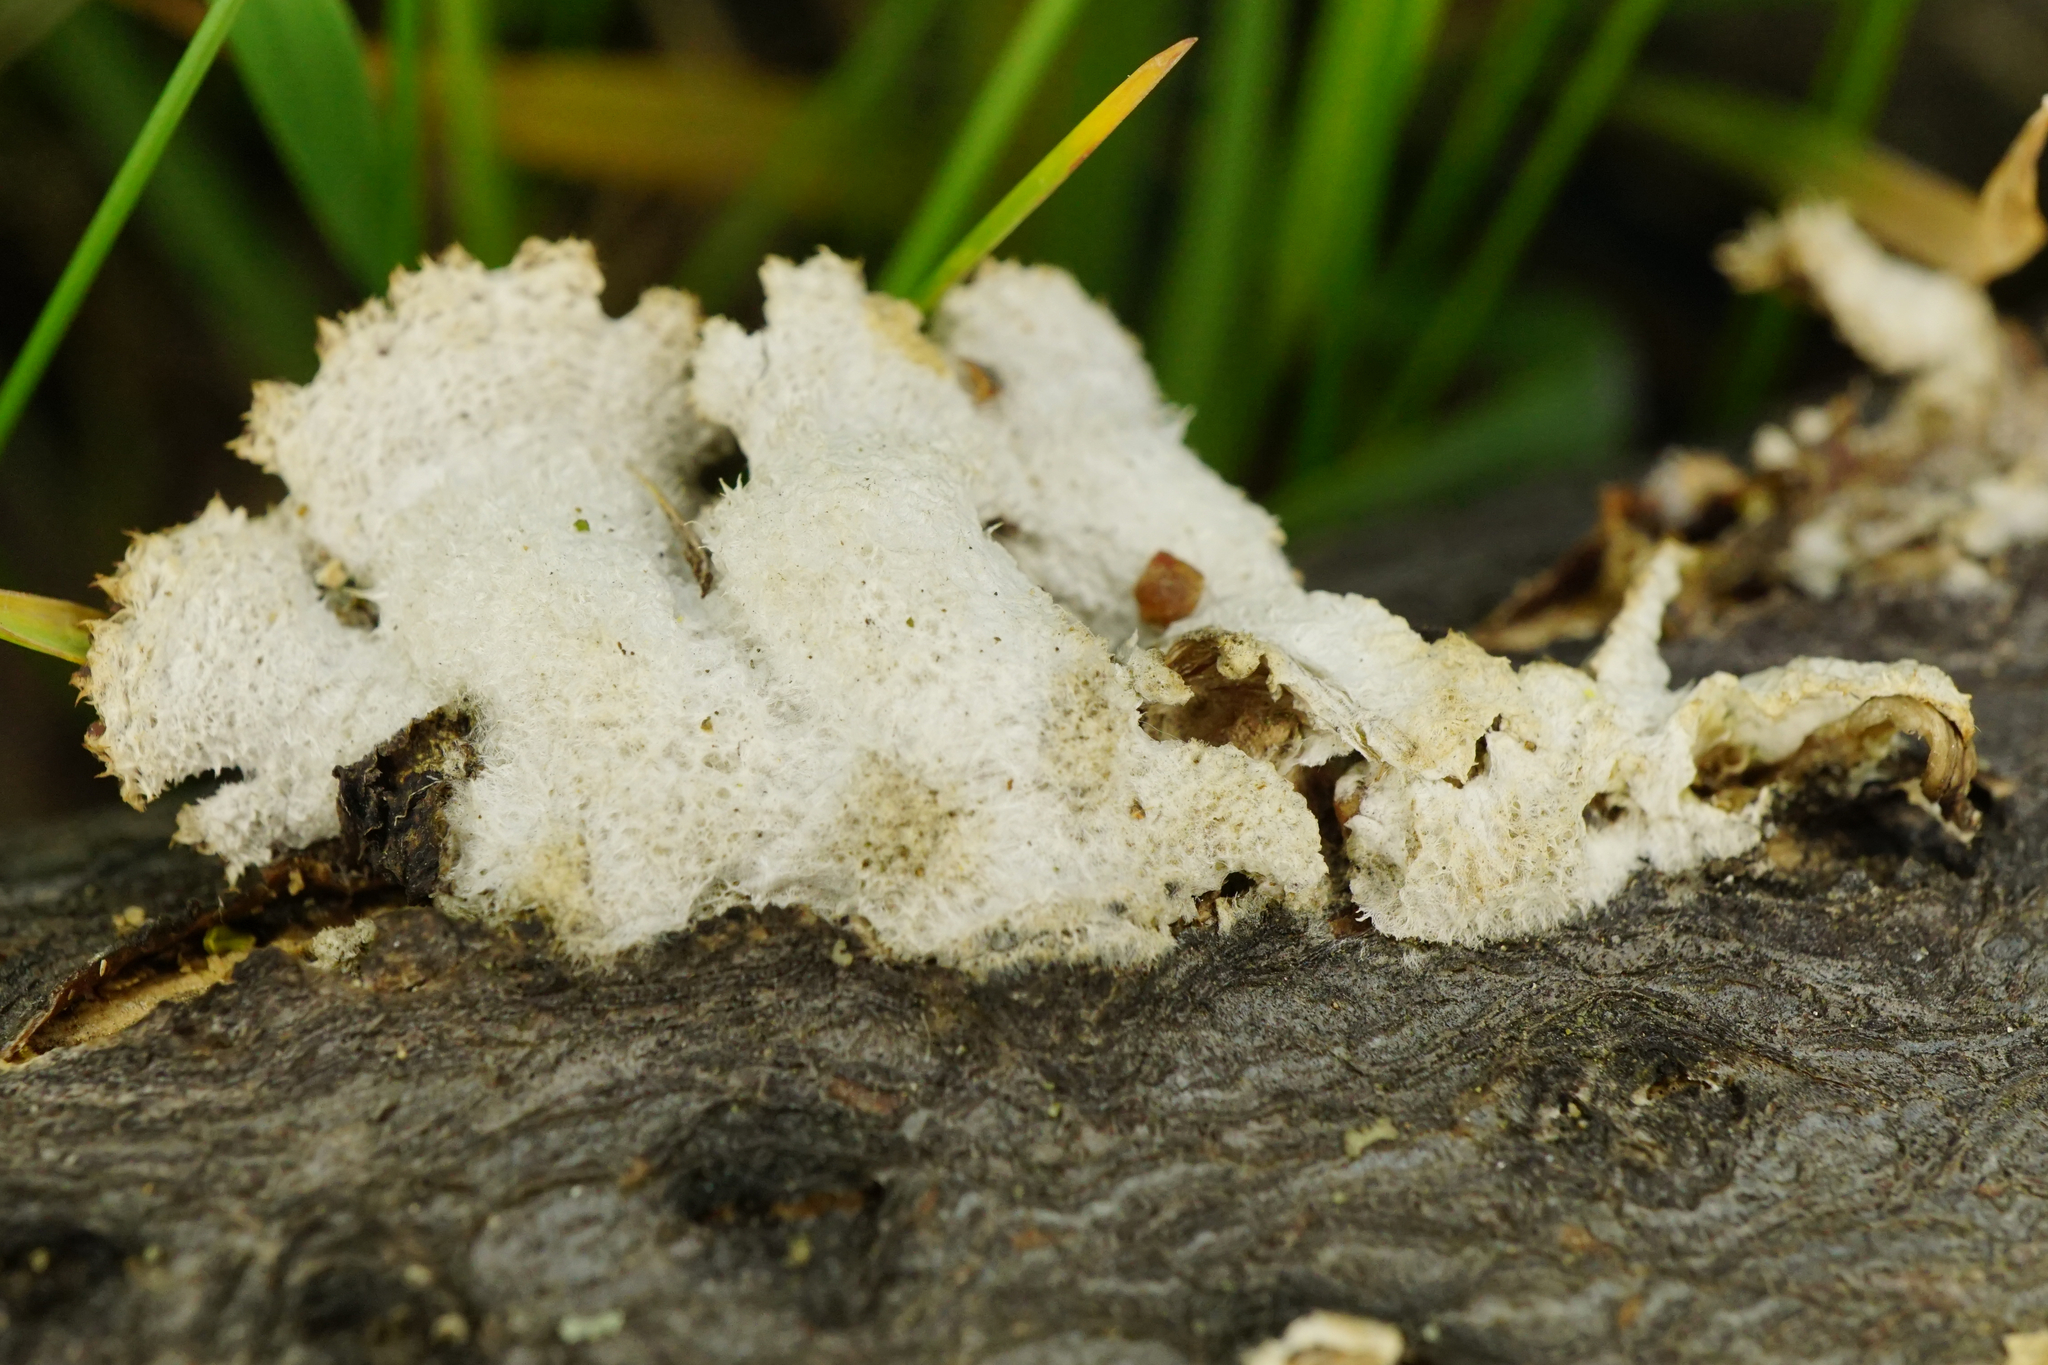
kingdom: Fungi
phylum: Basidiomycota
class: Agaricomycetes
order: Agaricales
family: Schizophyllaceae
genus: Schizophyllum
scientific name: Schizophyllum commune
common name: Common porecrust
